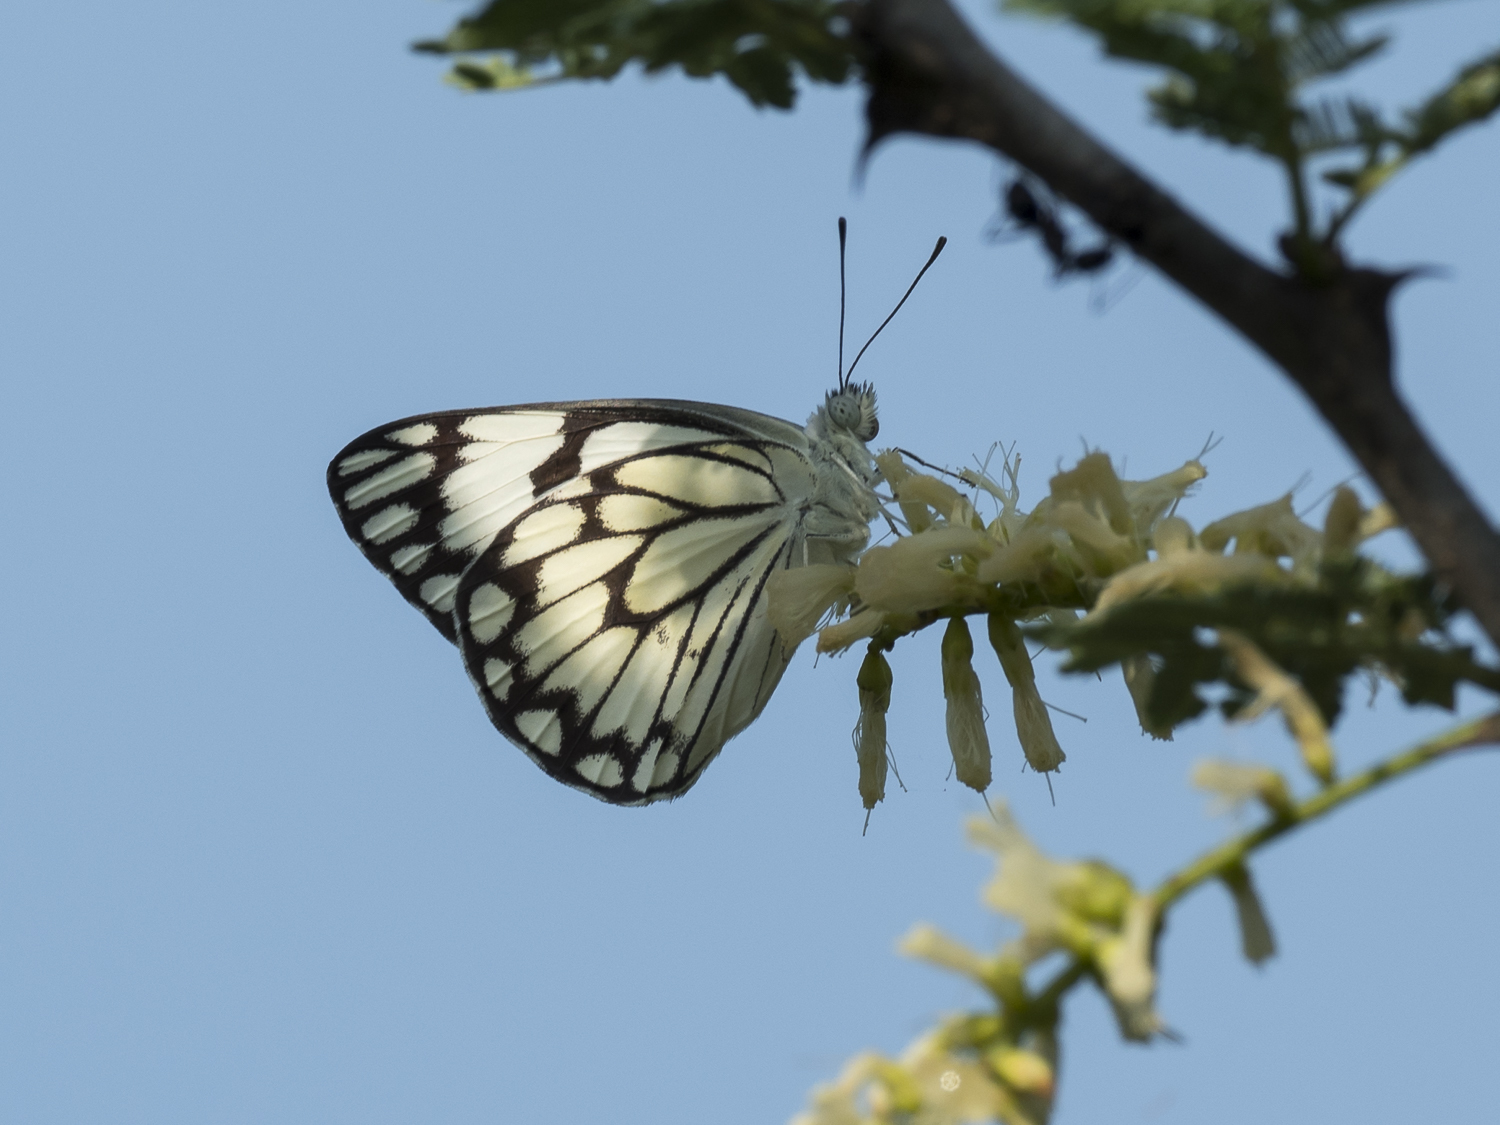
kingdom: Animalia
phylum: Arthropoda
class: Insecta
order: Lepidoptera
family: Pieridae
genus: Belenois
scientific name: Belenois aurota
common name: Brown-veined white
